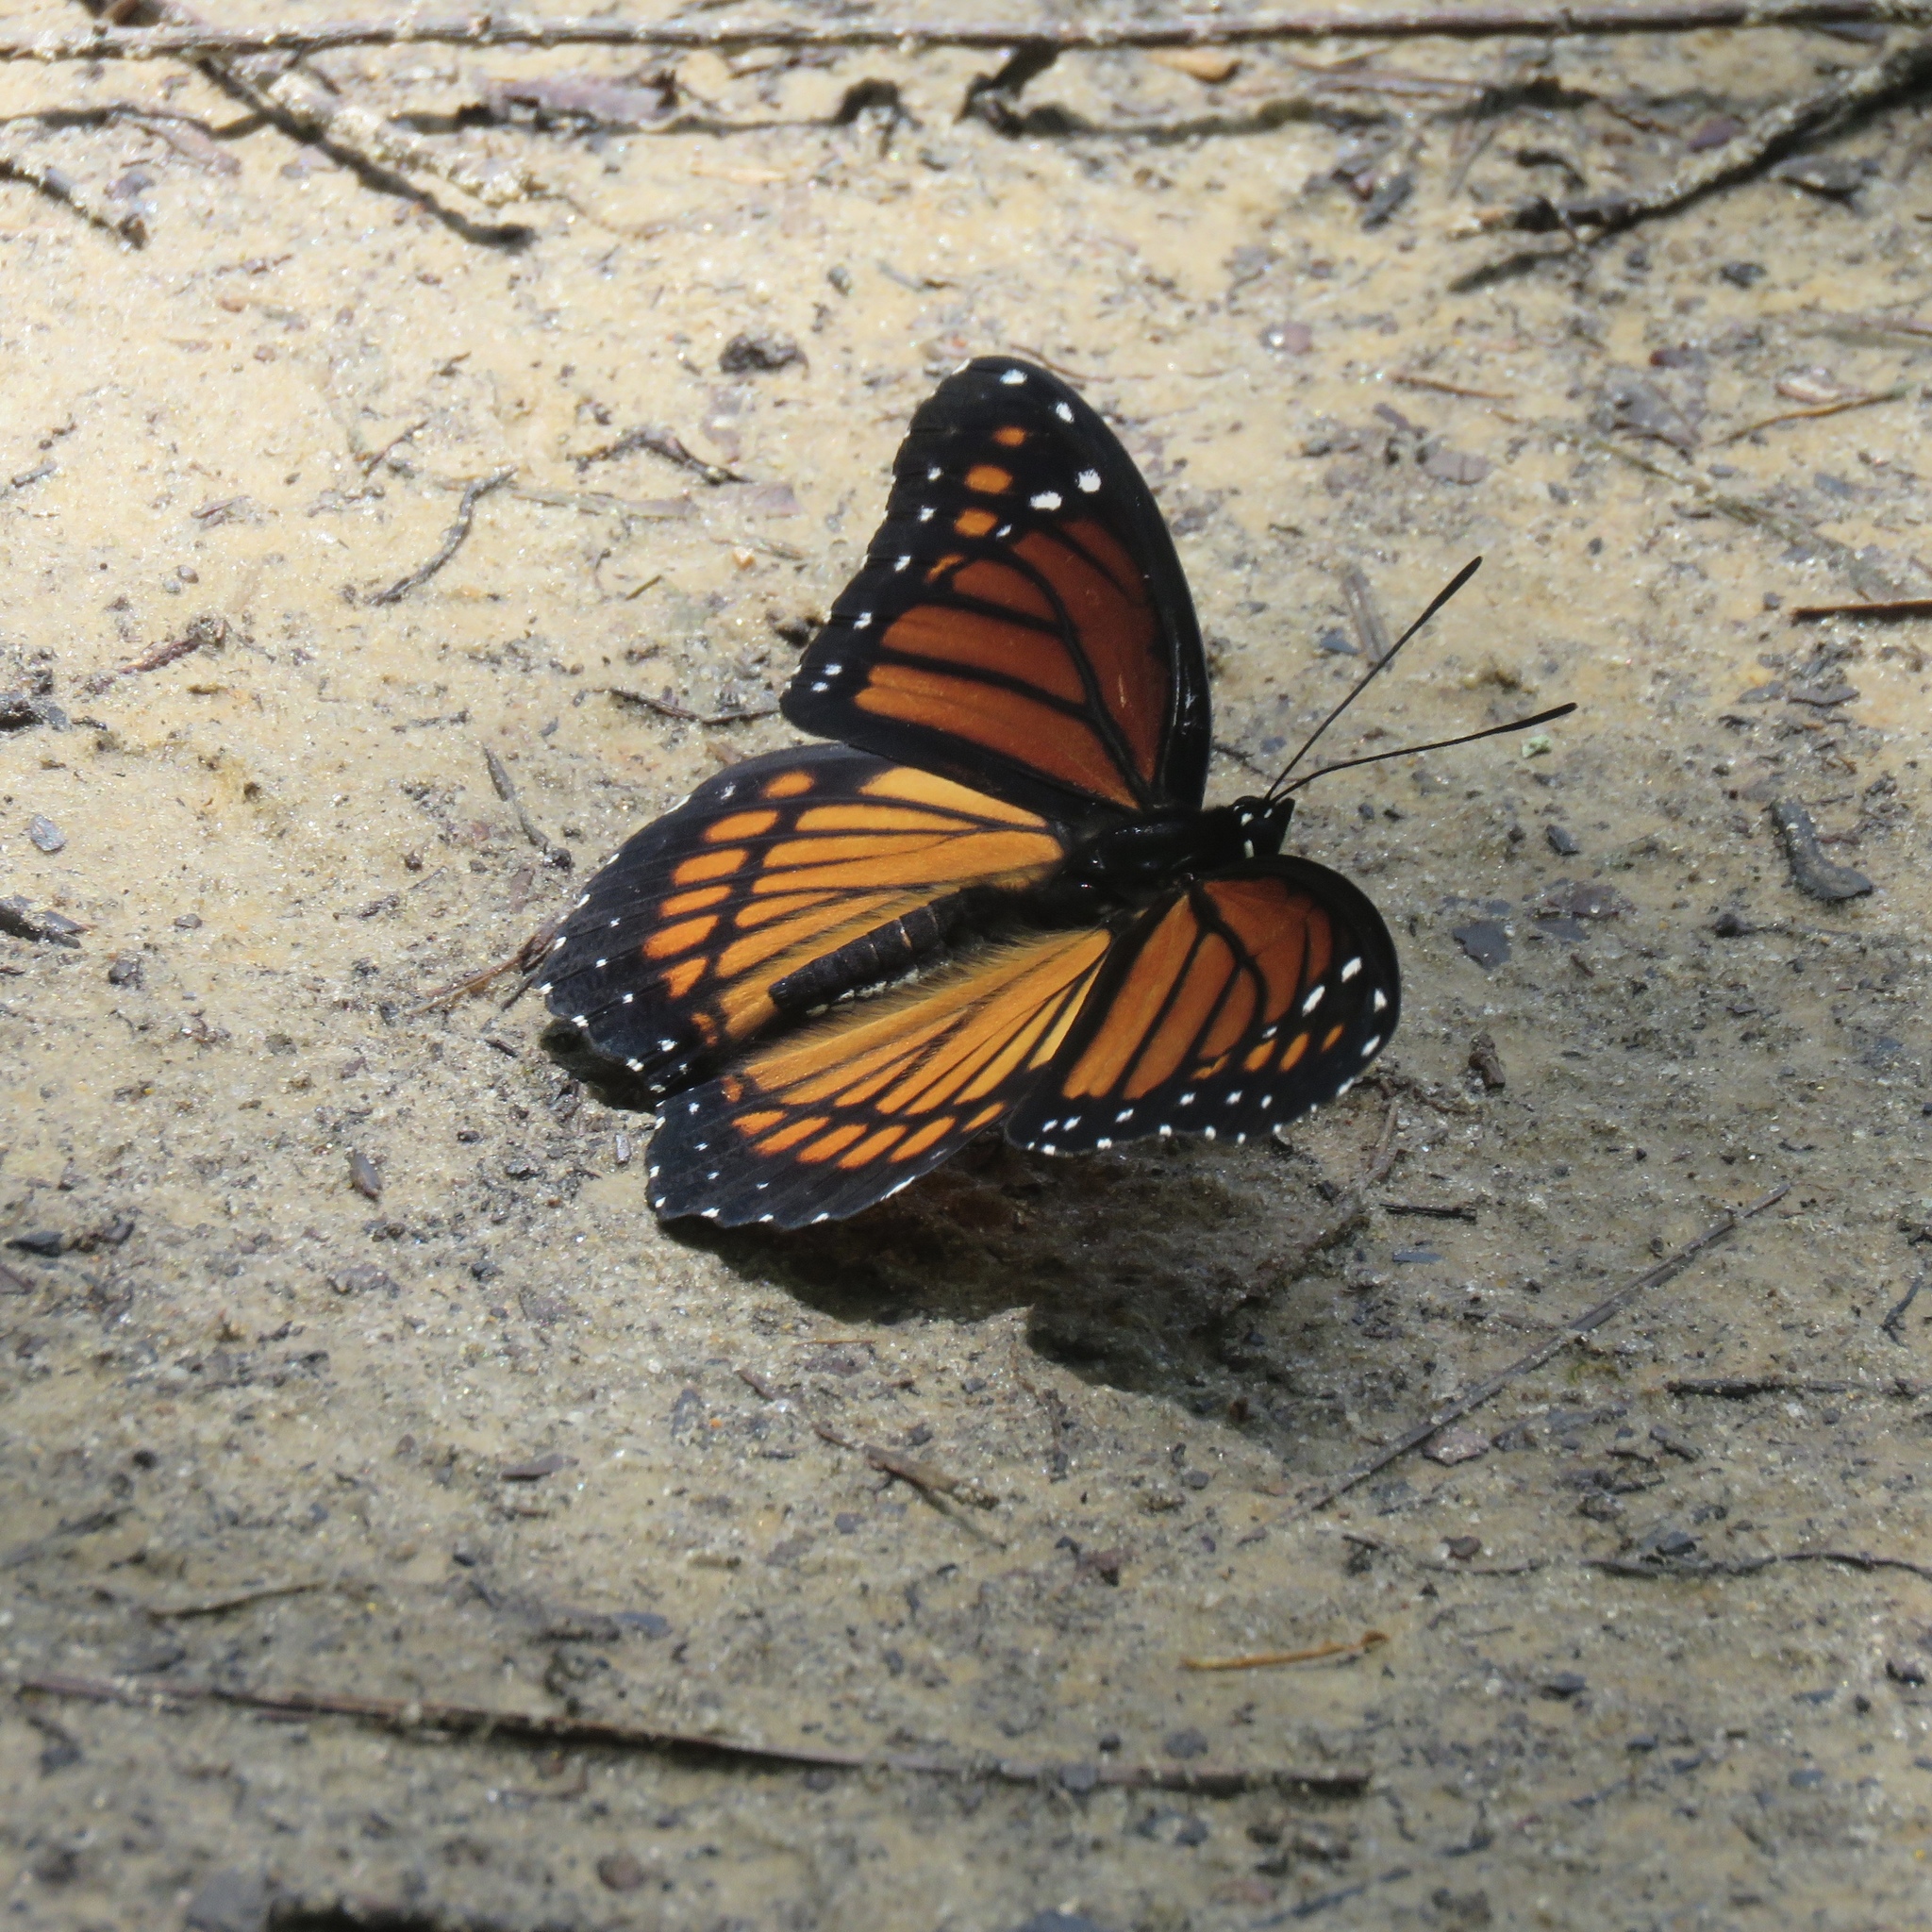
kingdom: Animalia
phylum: Arthropoda
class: Insecta
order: Lepidoptera
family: Nymphalidae
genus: Limenitis
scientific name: Limenitis archippus
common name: Viceroy
